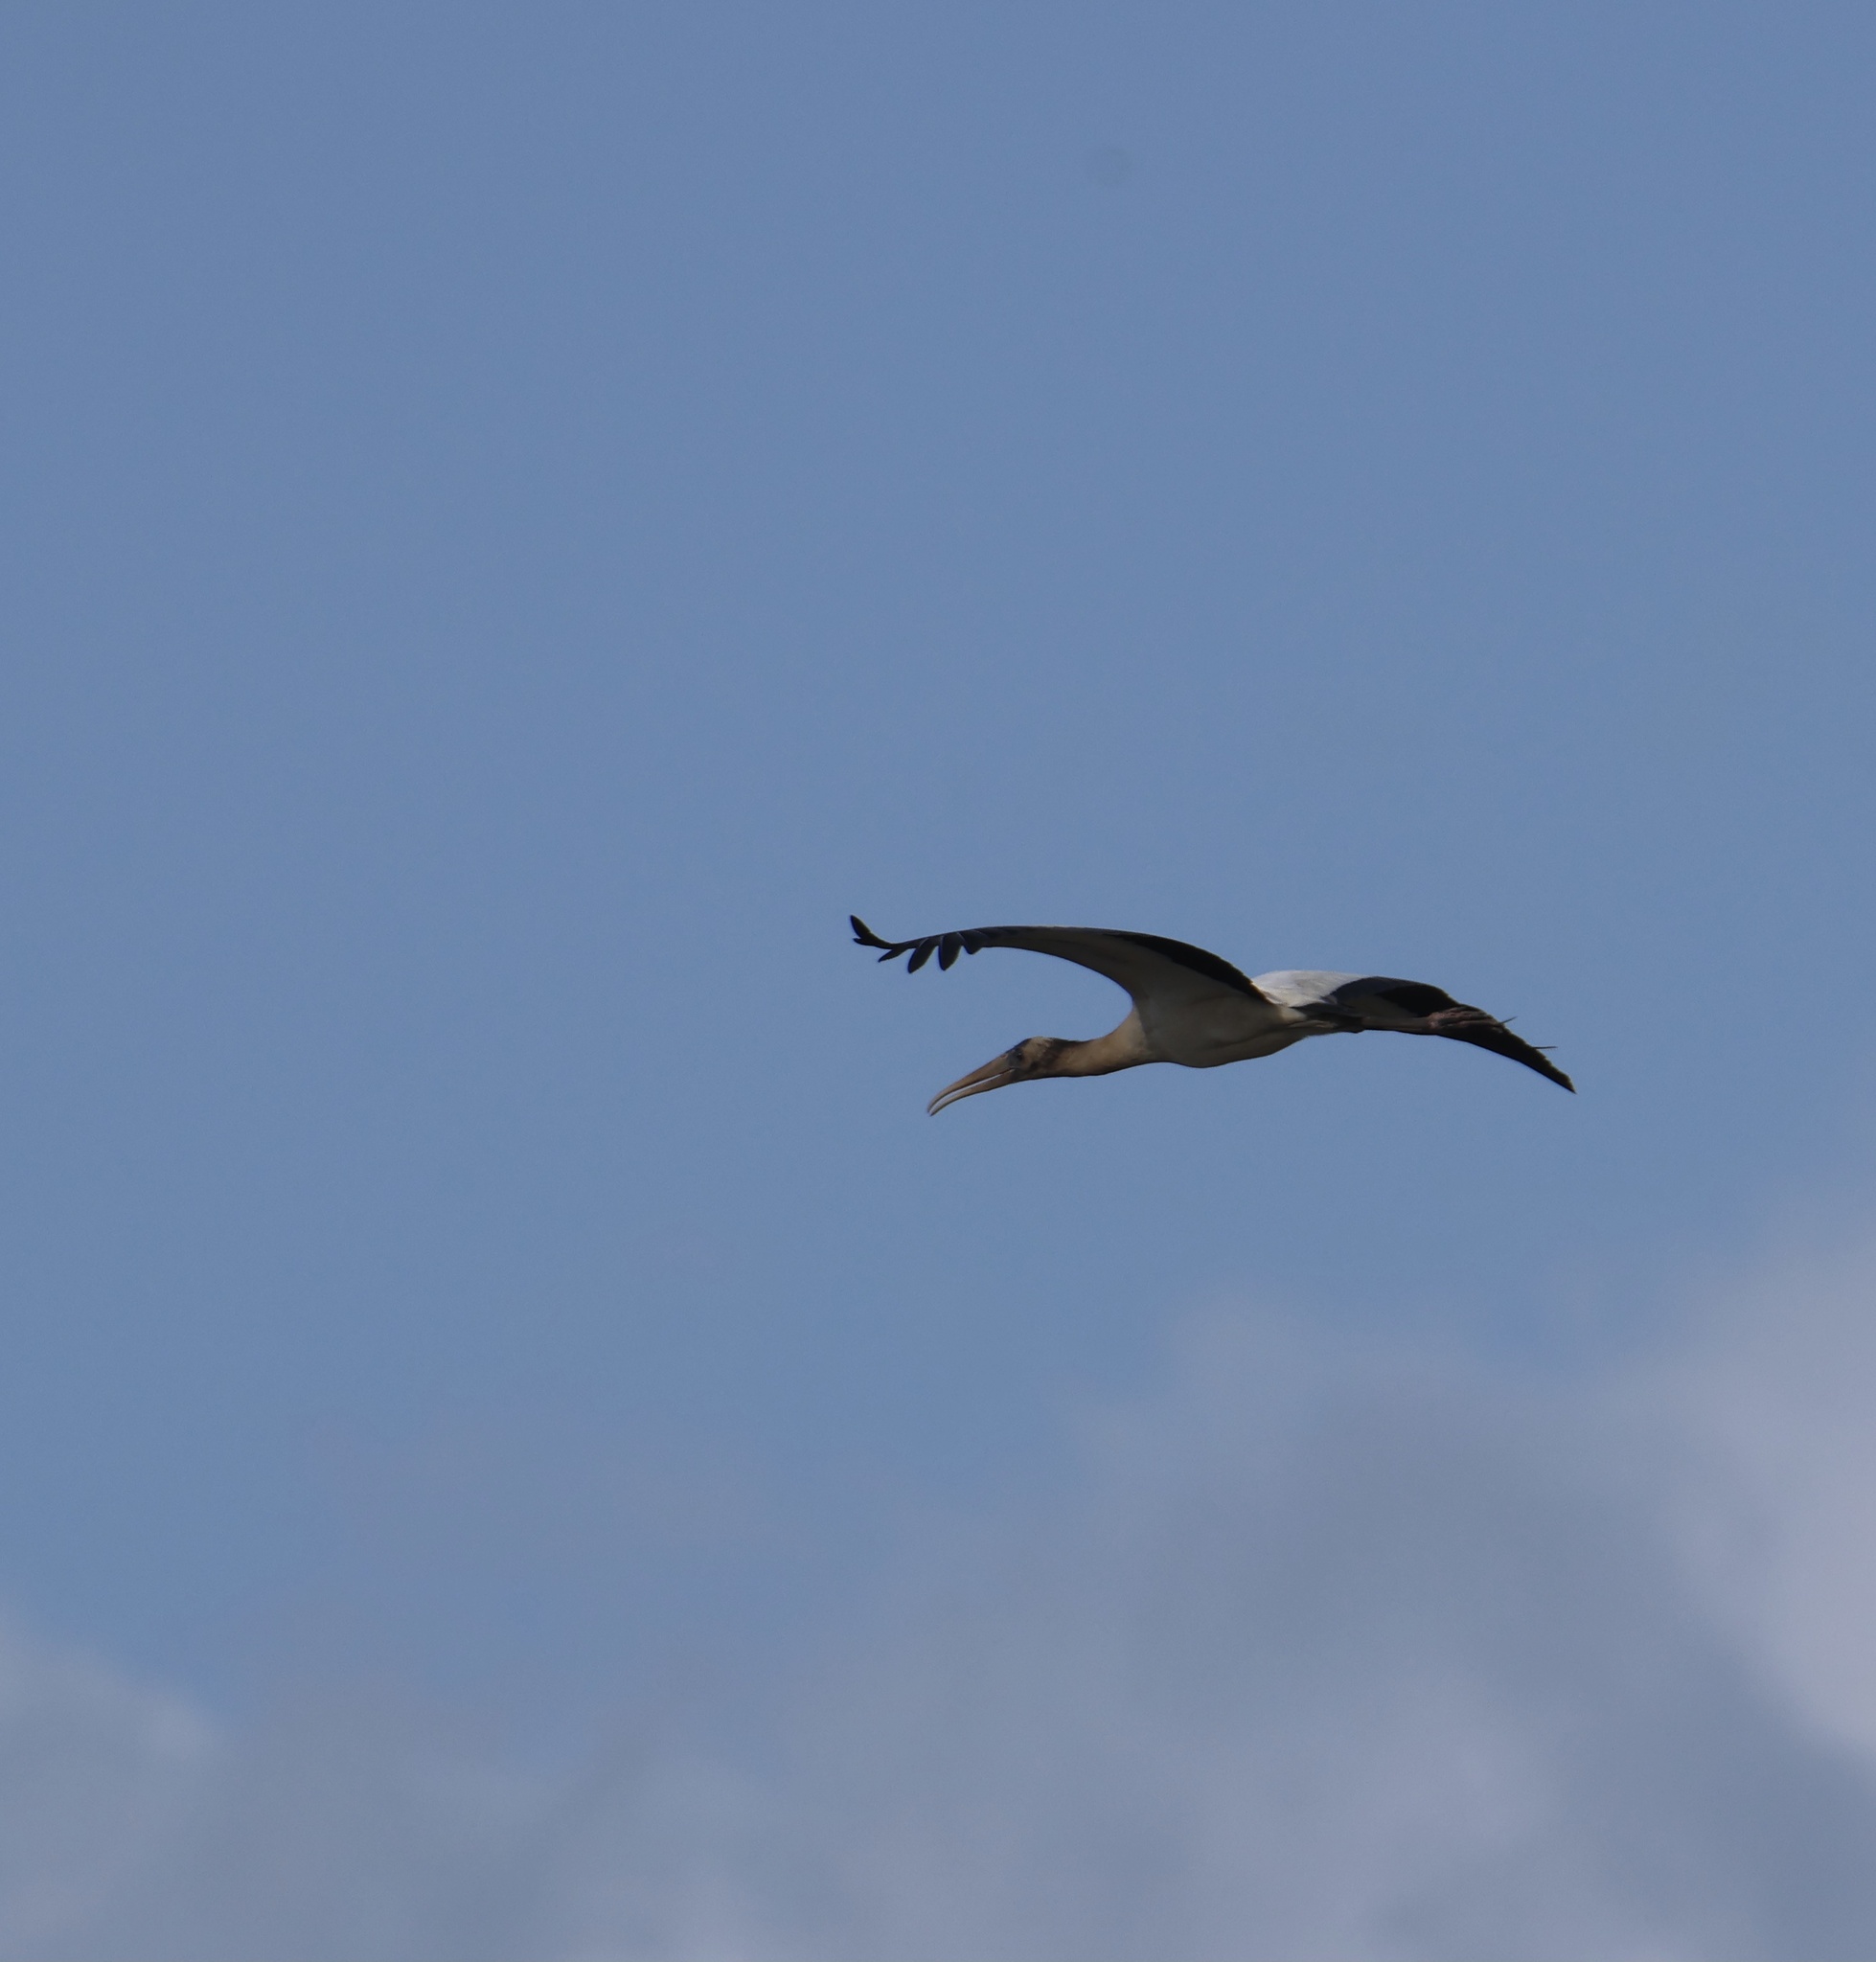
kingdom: Animalia
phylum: Chordata
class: Aves
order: Ciconiiformes
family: Ciconiidae
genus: Mycteria
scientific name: Mycteria americana
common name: Wood stork
